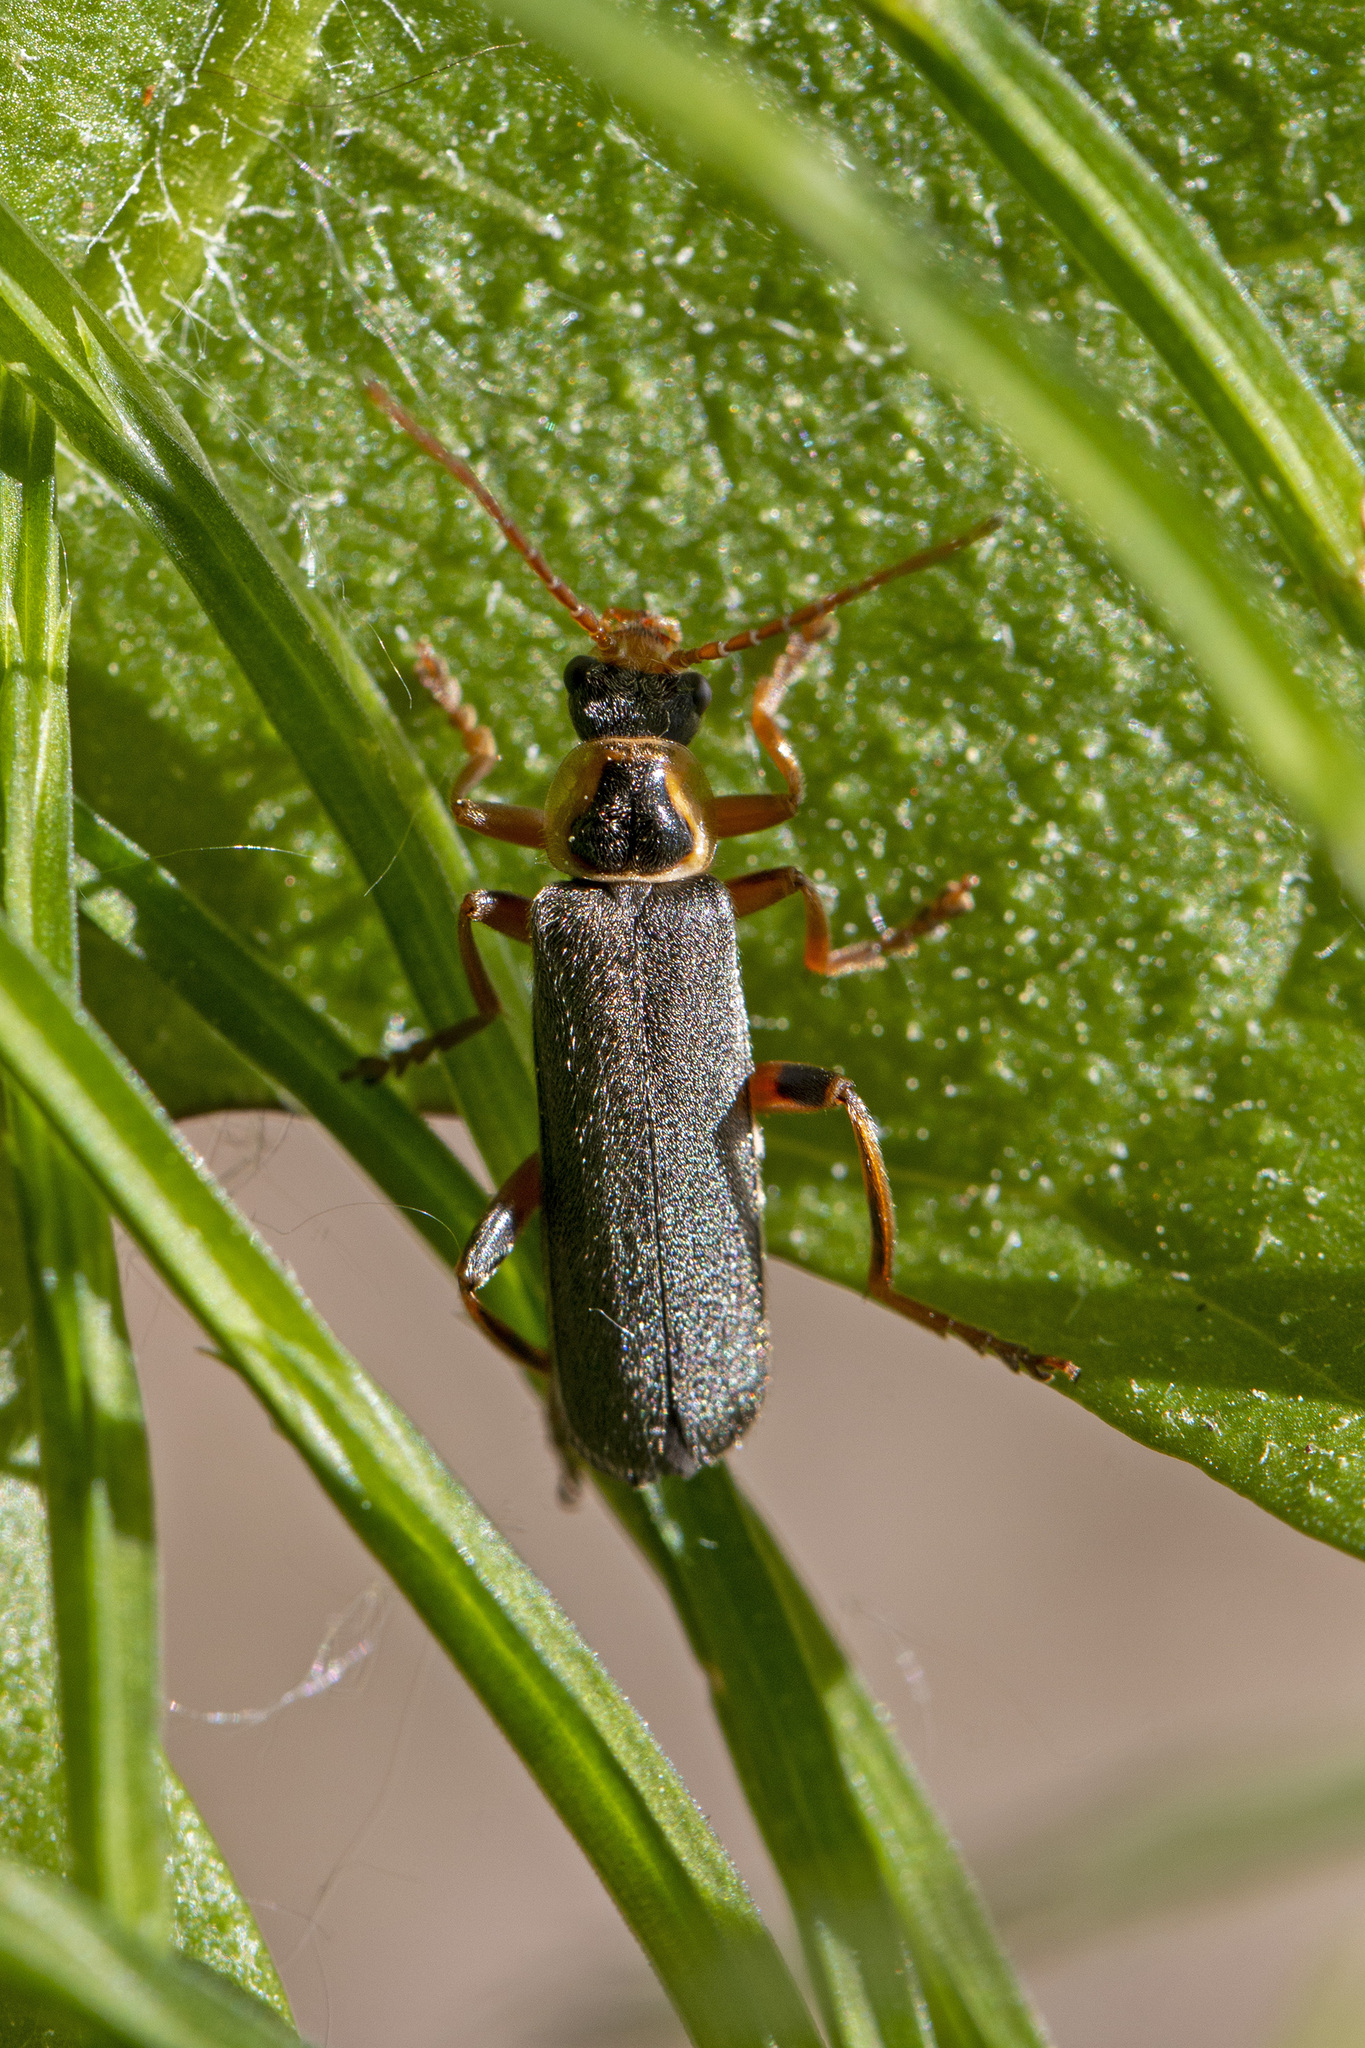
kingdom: Animalia
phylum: Arthropoda
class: Insecta
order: Coleoptera
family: Cantharidae
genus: Cantharis
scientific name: Cantharis nigricans
